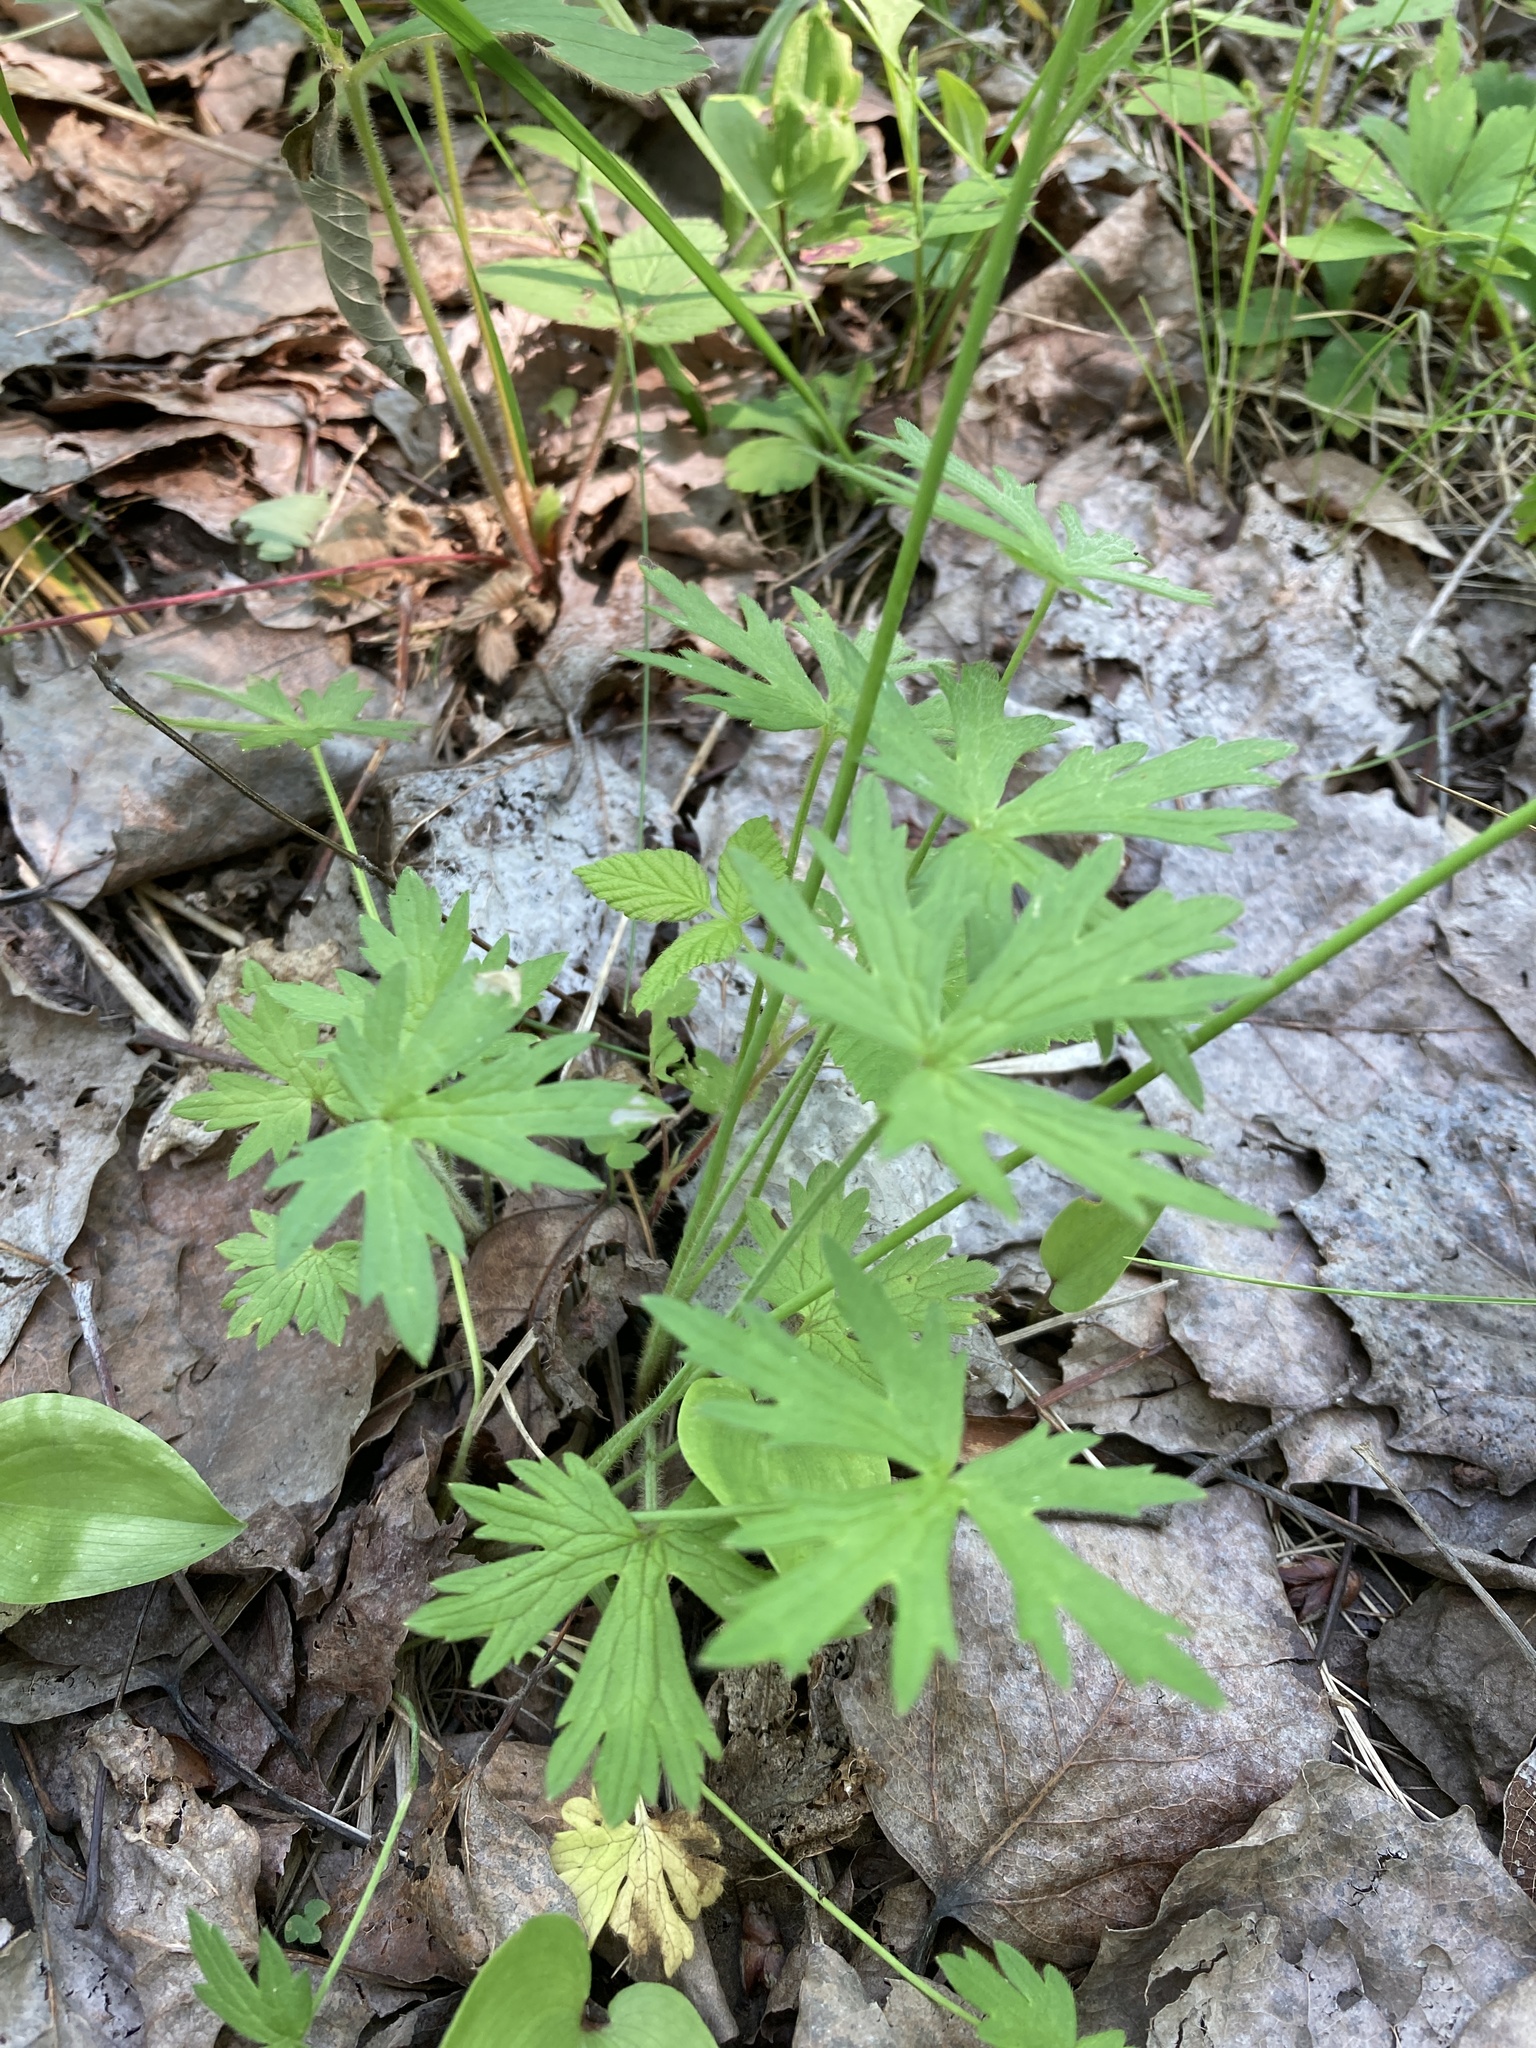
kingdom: Plantae
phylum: Tracheophyta
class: Magnoliopsida
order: Ranunculales
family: Ranunculaceae
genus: Ranunculus
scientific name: Ranunculus acris
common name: Meadow buttercup
